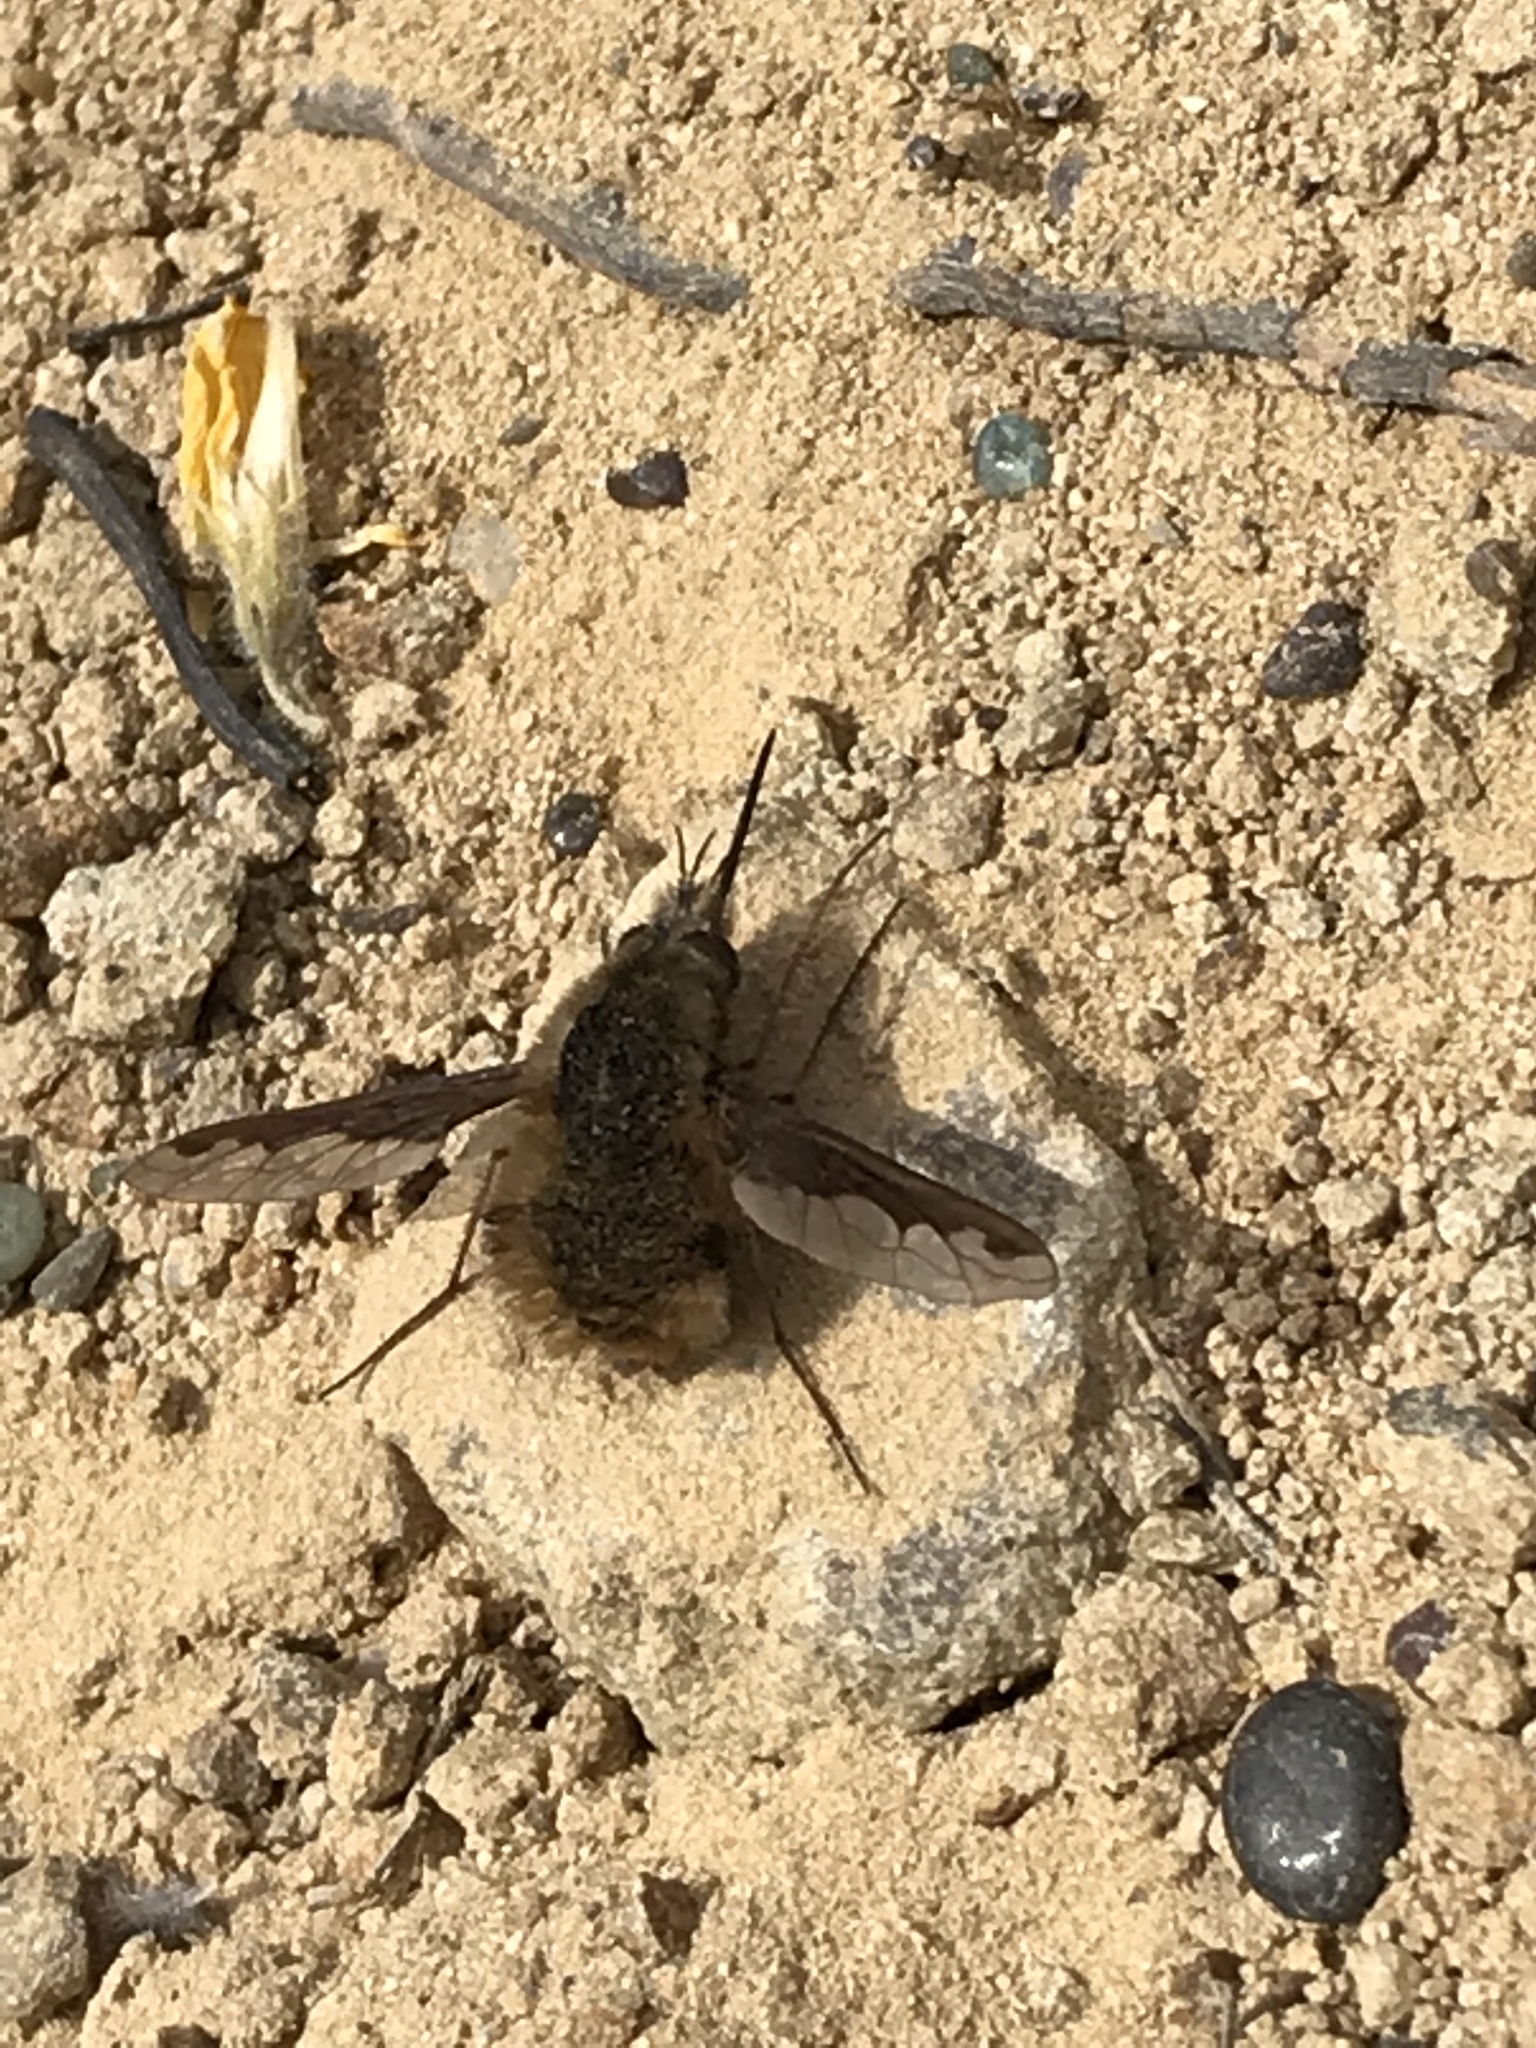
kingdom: Animalia
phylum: Arthropoda
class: Insecta
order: Diptera
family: Bombyliidae
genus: Bombylius
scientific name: Bombylius major
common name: Bee fly
